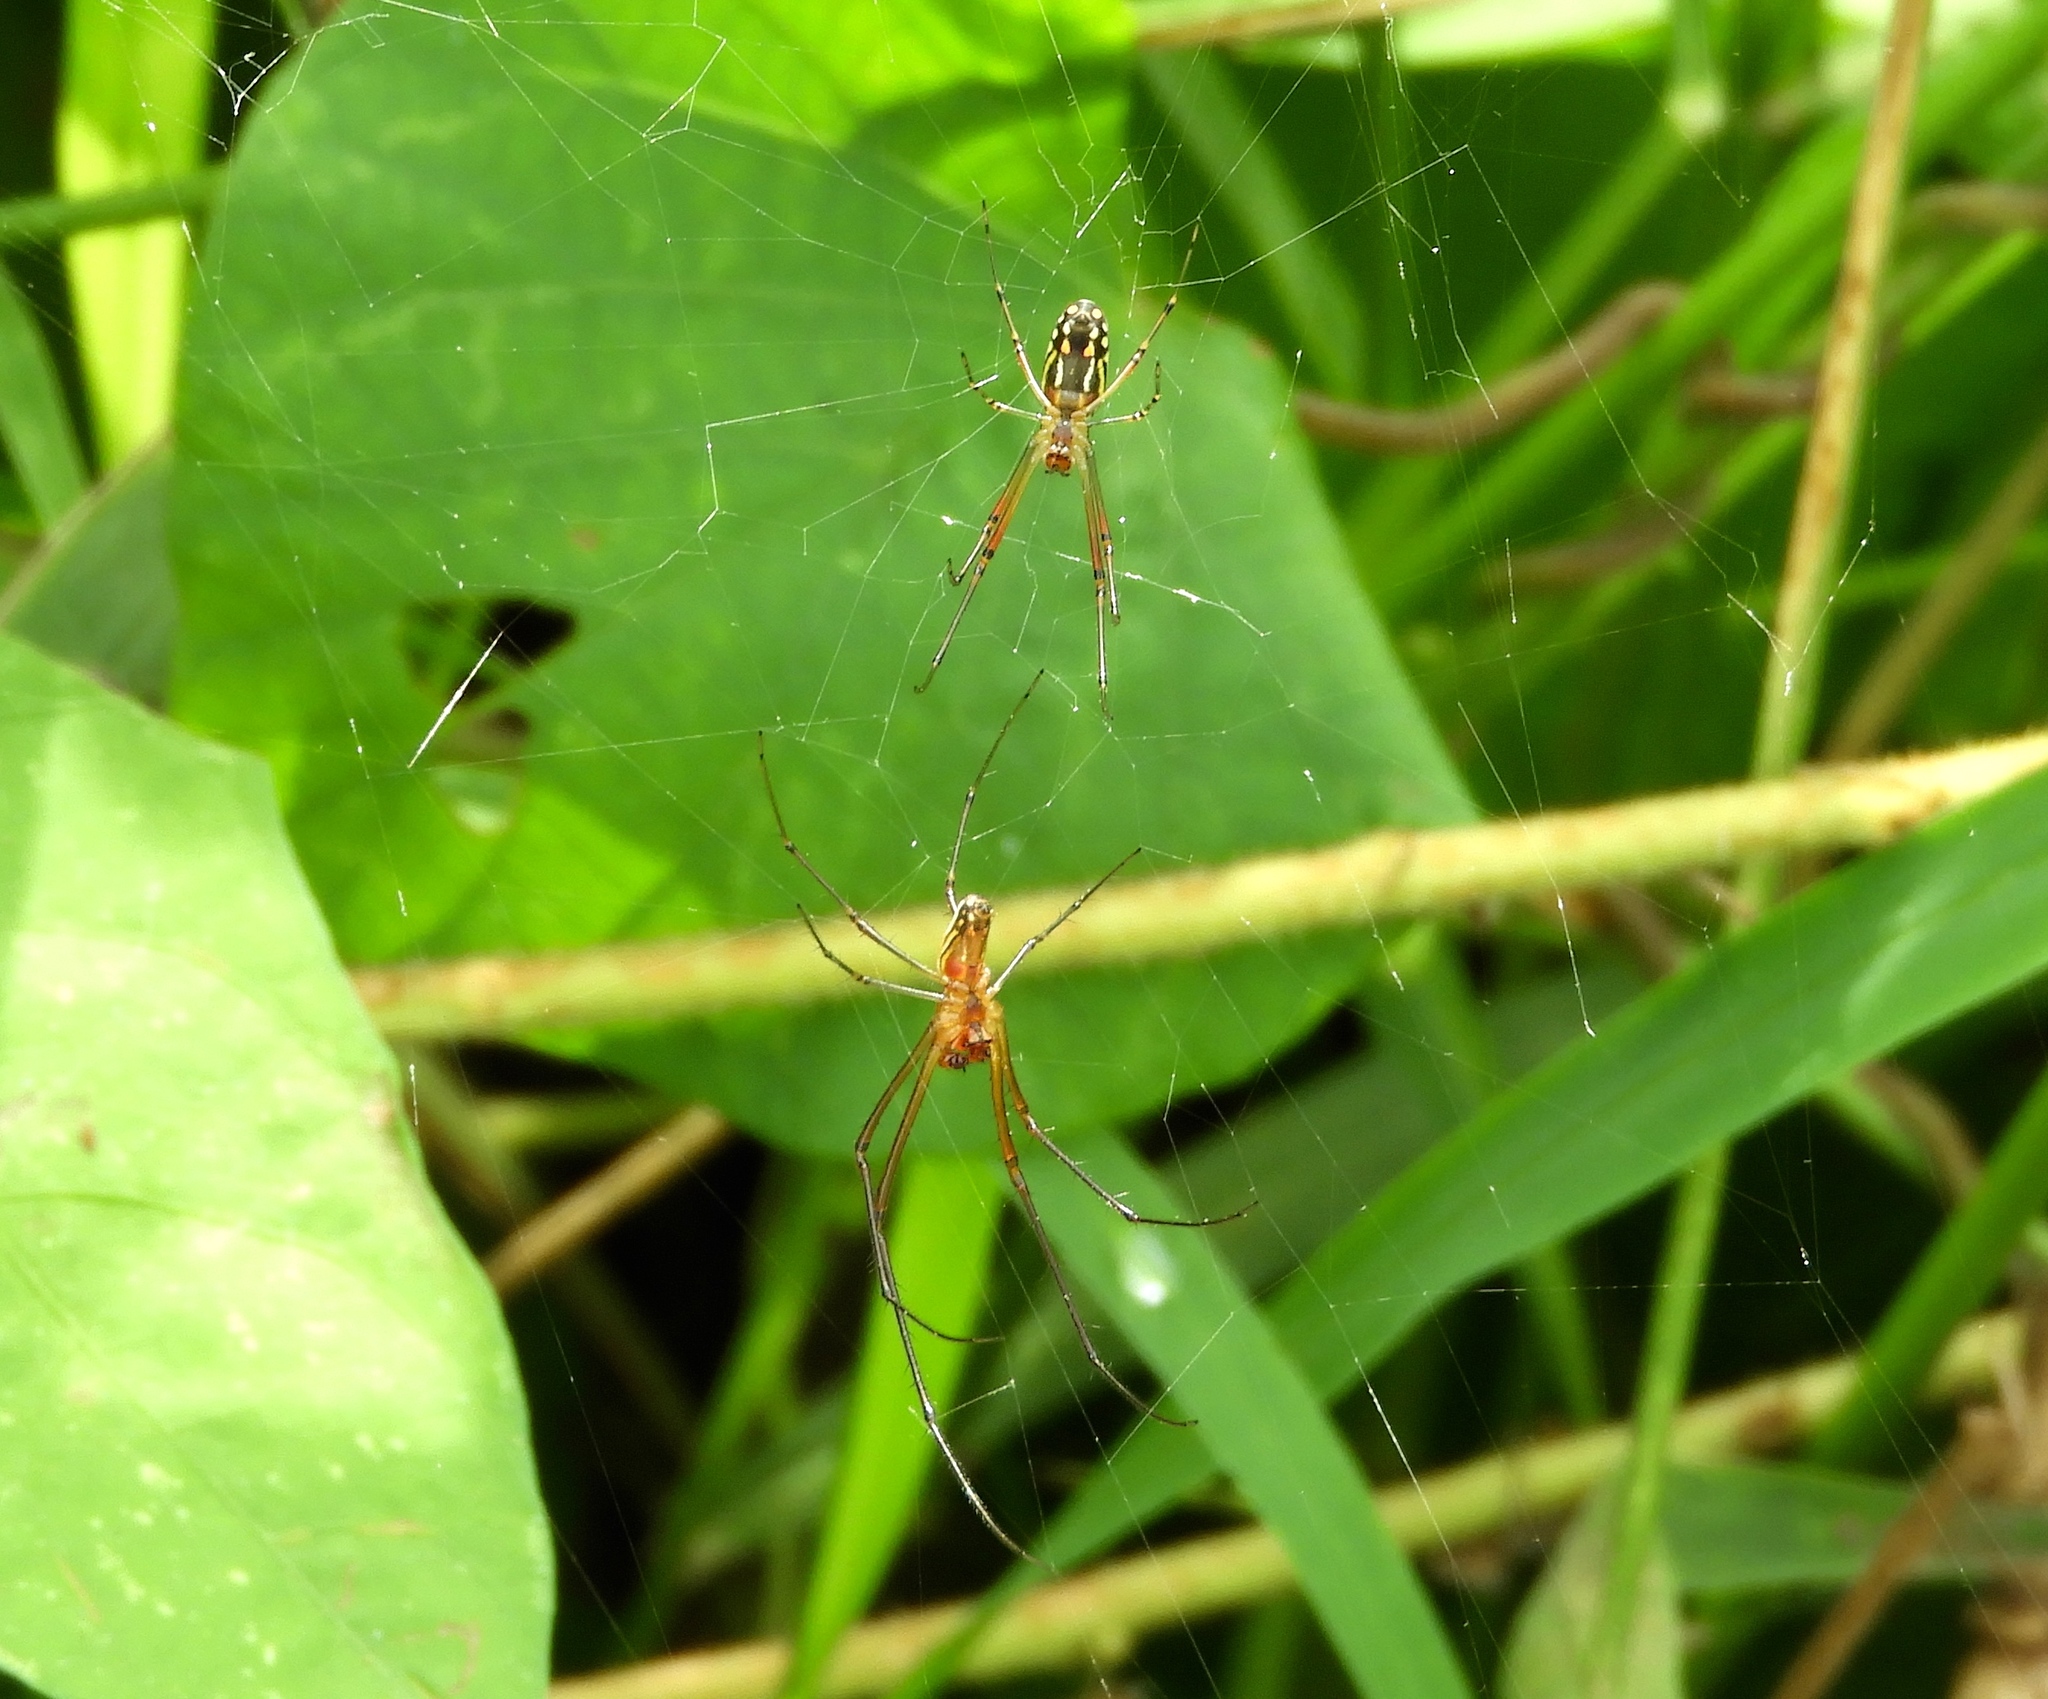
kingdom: Animalia
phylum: Arthropoda
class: Arachnida
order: Araneae
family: Tetragnathidae
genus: Leucauge
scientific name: Leucauge
